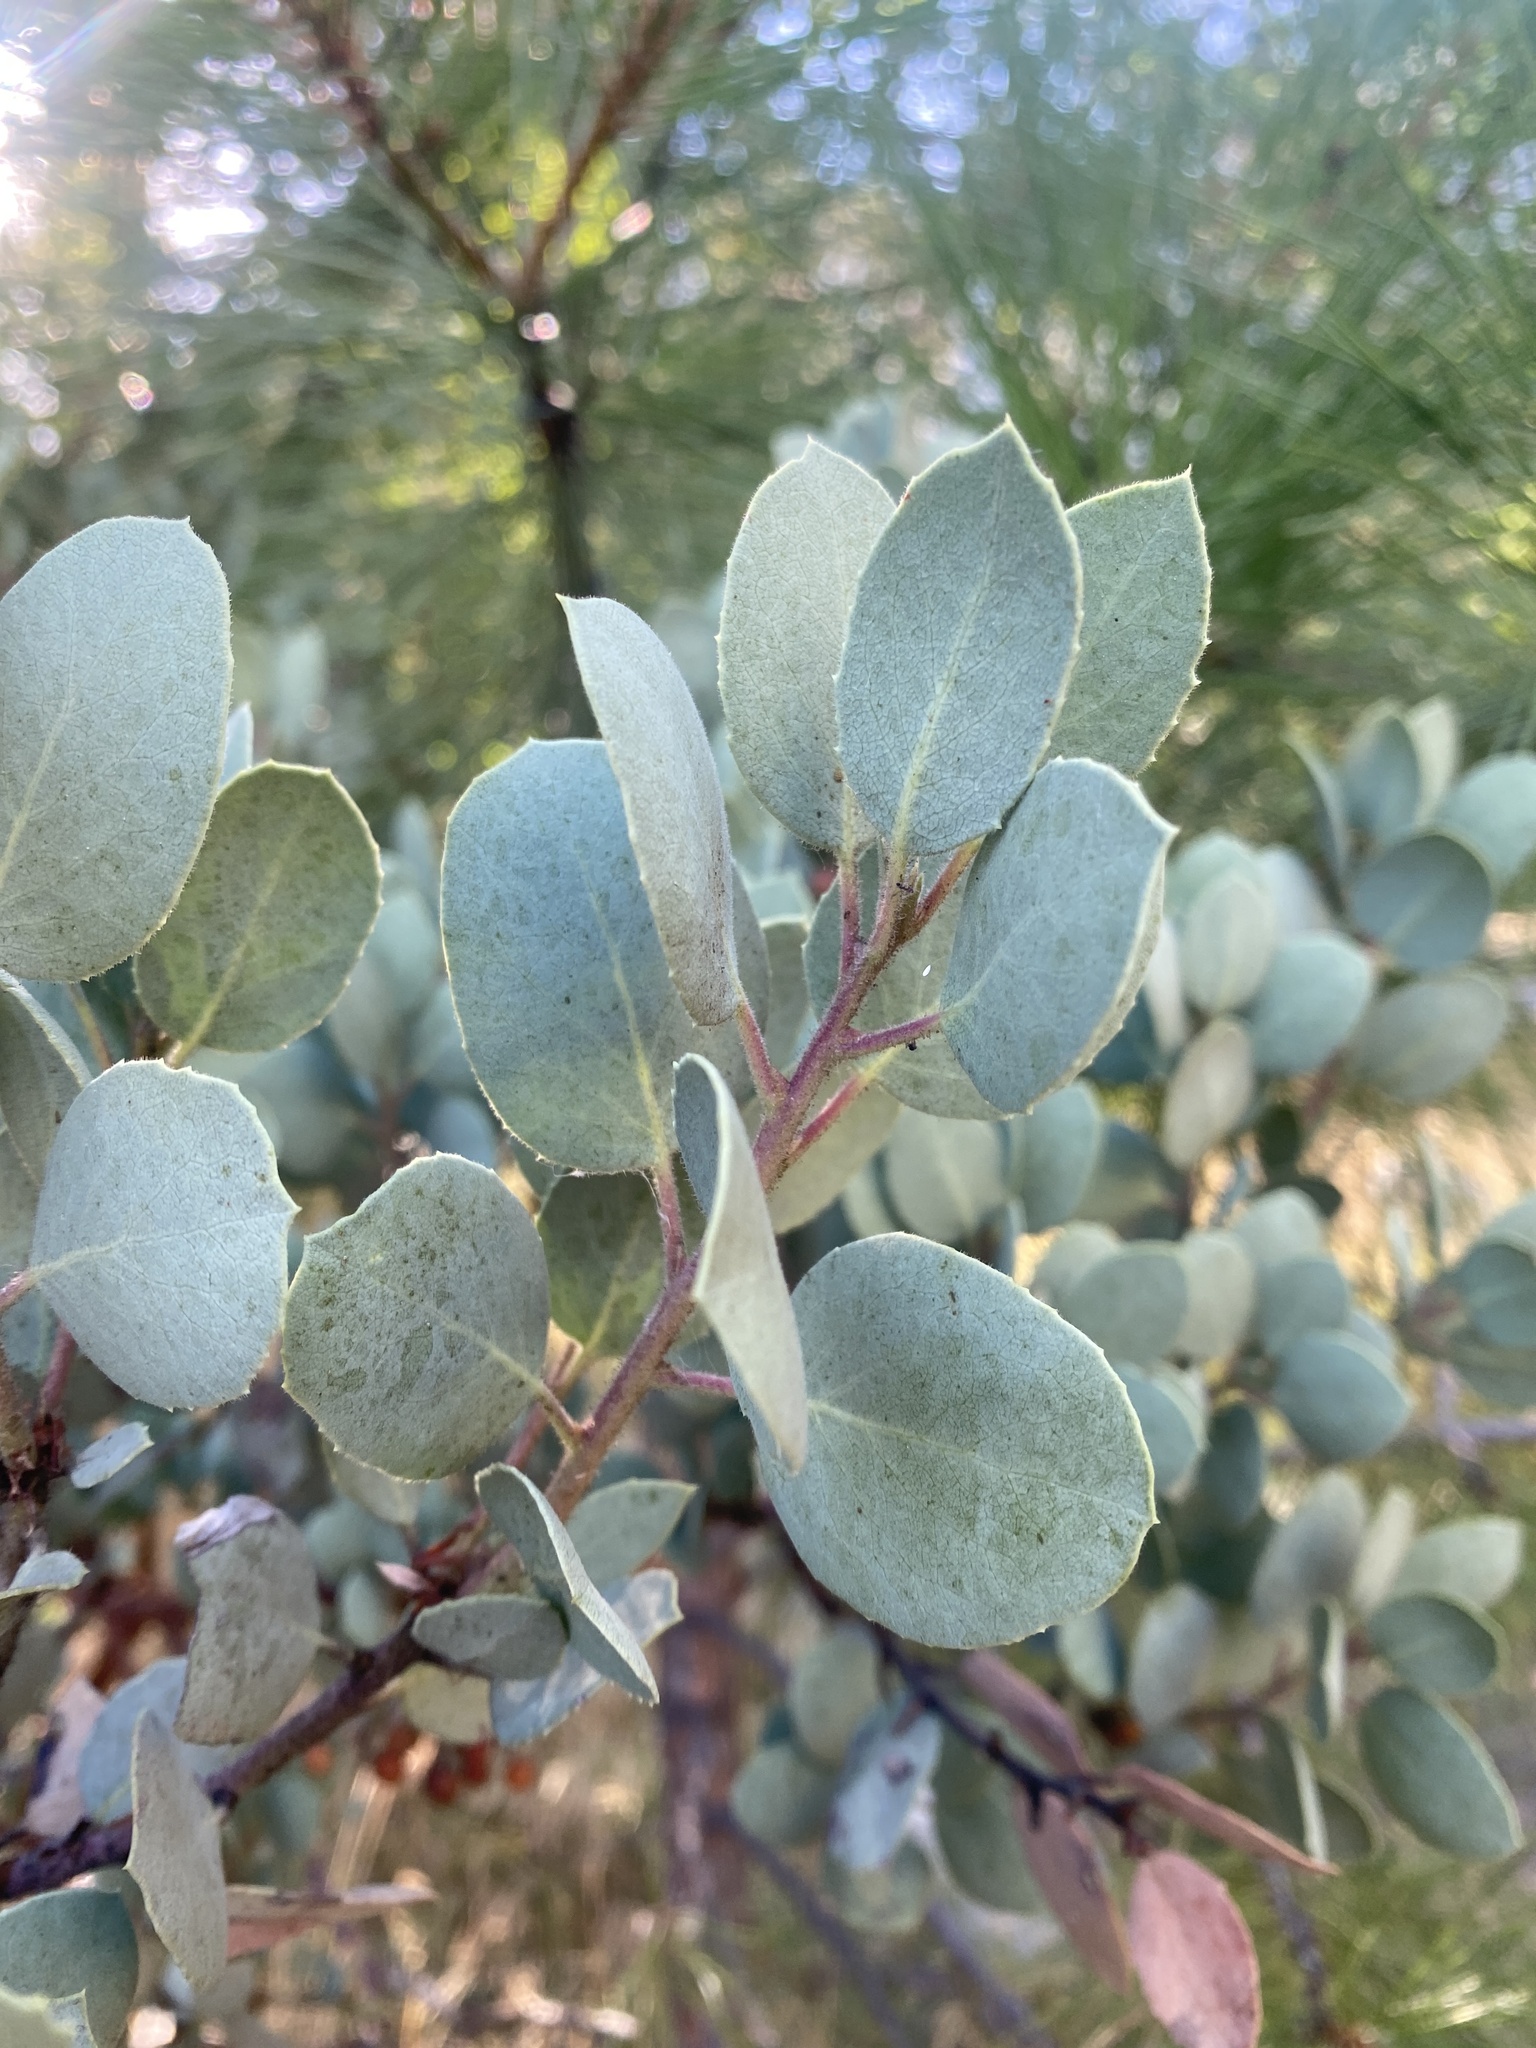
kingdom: Plantae
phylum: Tracheophyta
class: Magnoliopsida
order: Ericales
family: Ericaceae
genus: Arctostaphylos
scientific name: Arctostaphylos viscida
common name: White-leaf manzanita
